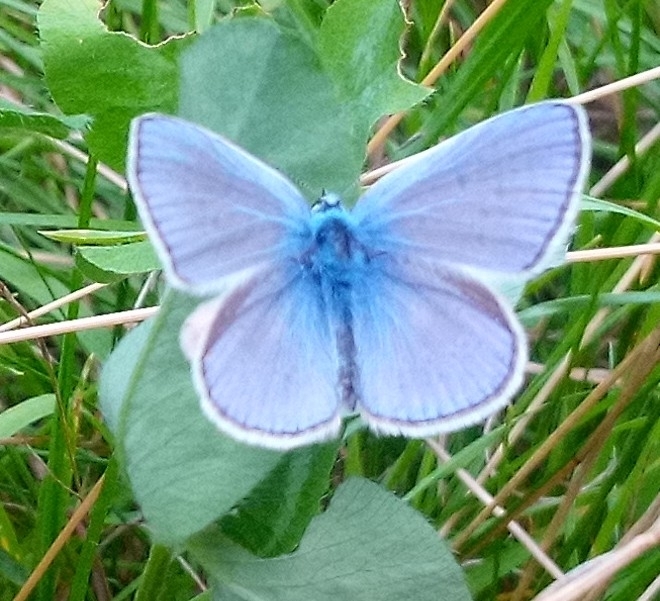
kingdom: Animalia
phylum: Arthropoda
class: Insecta
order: Lepidoptera
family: Lycaenidae
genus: Polyommatus
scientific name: Polyommatus icarus
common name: Common blue
